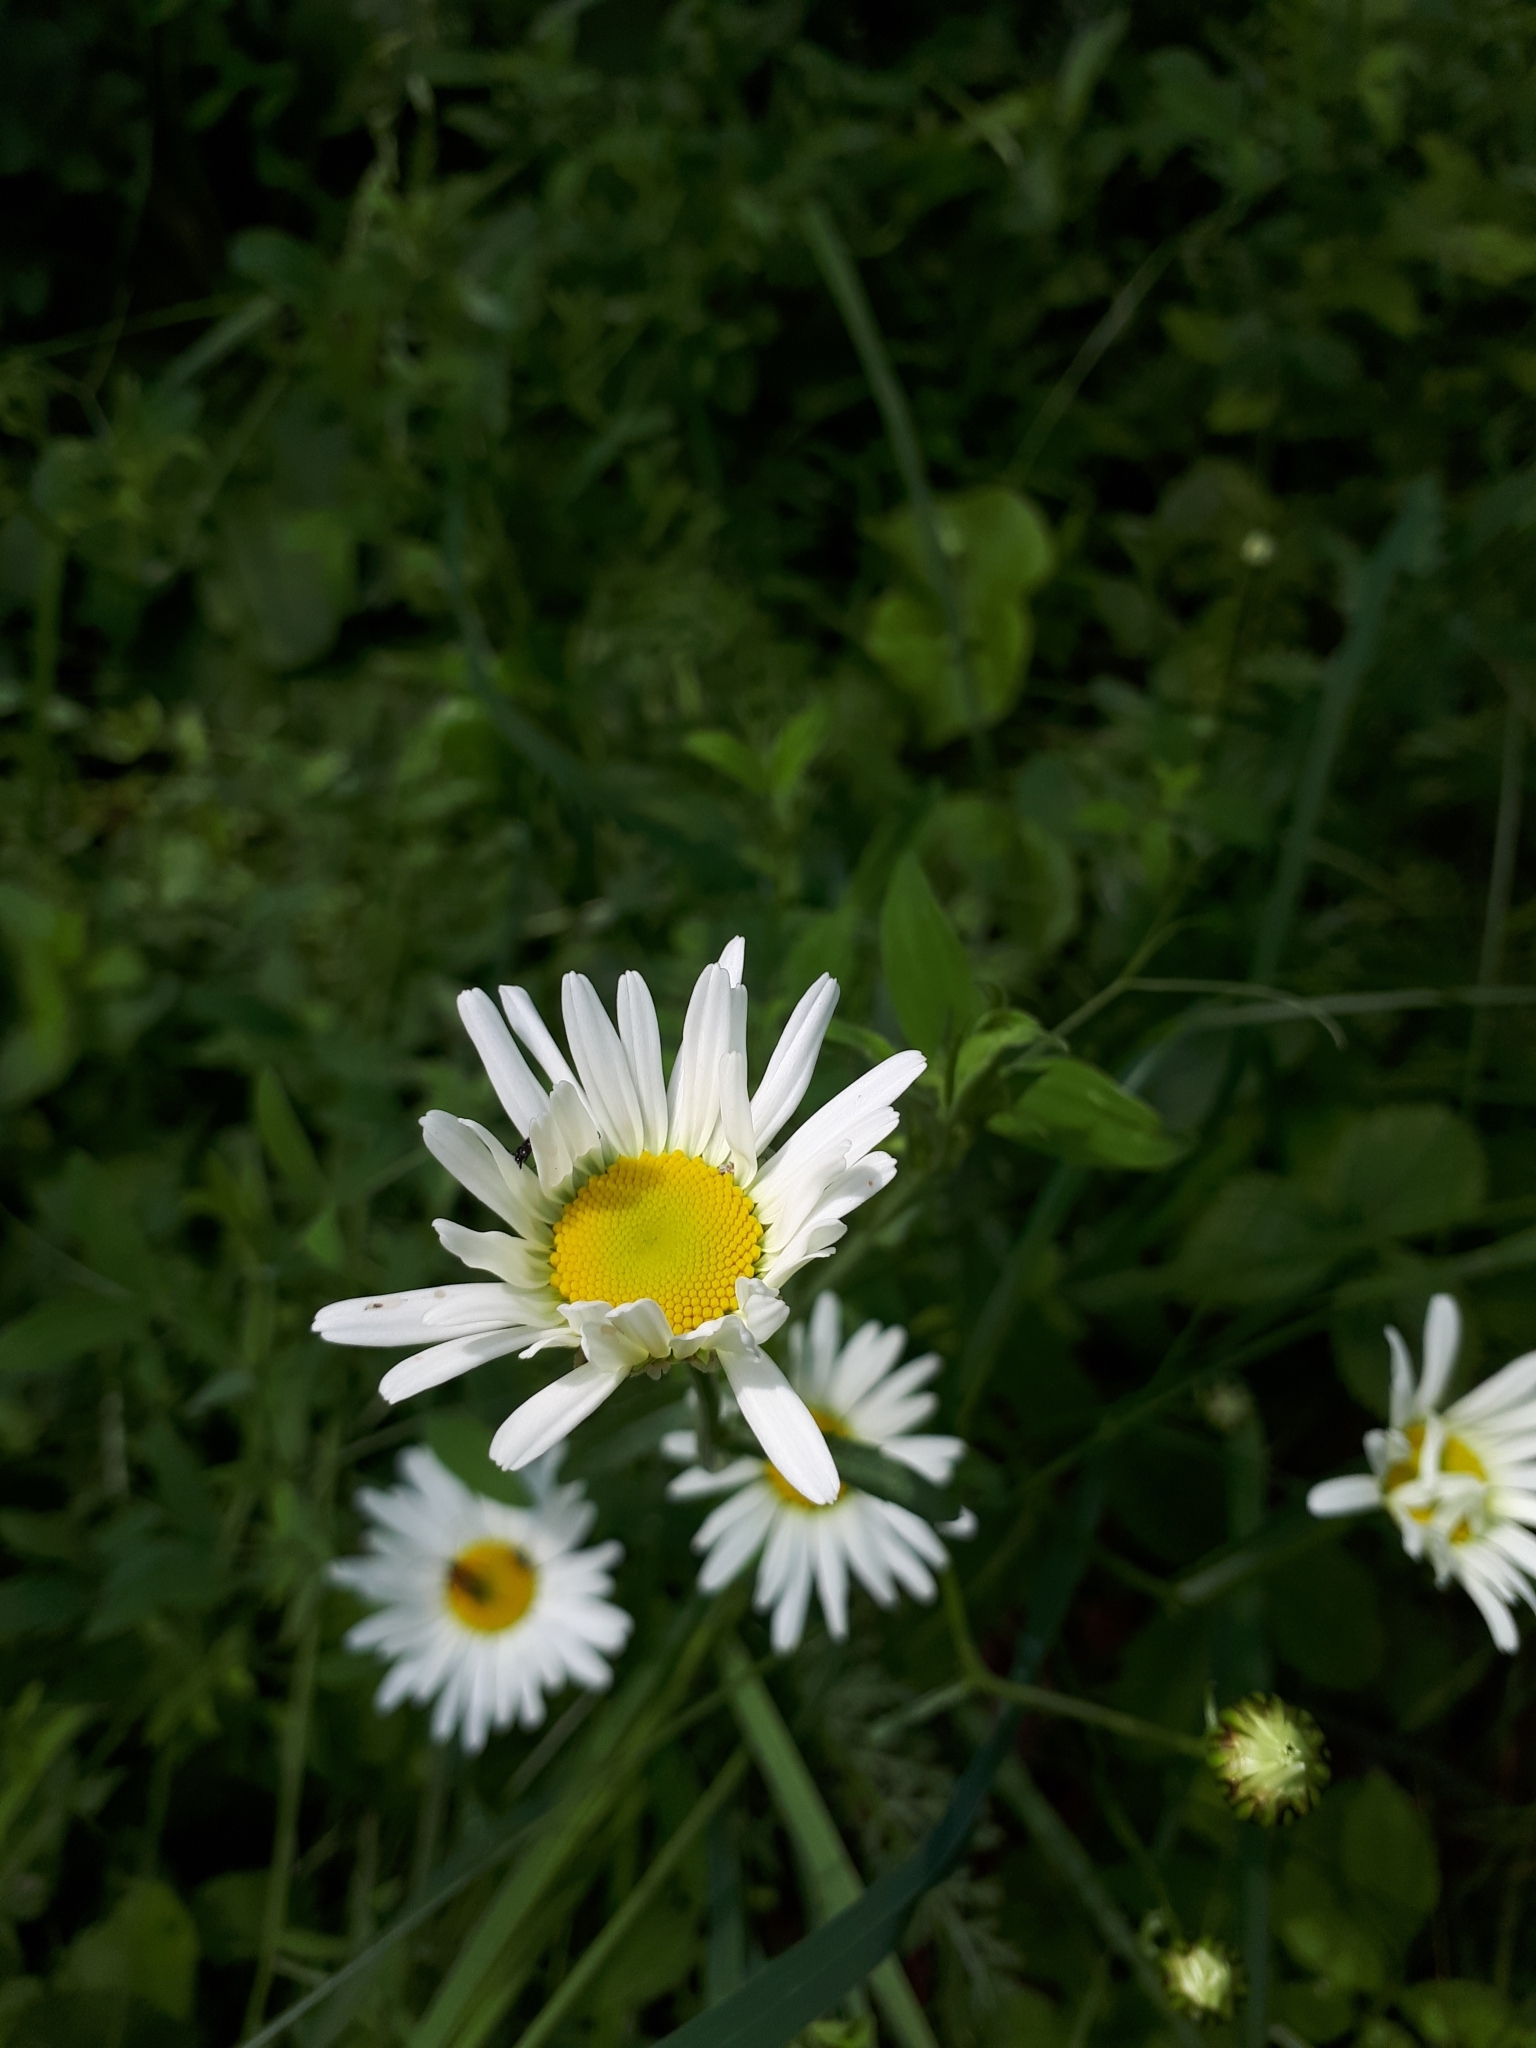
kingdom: Plantae
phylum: Tracheophyta
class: Magnoliopsida
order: Asterales
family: Asteraceae
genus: Leucanthemum
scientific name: Leucanthemum vulgare
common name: Oxeye daisy
